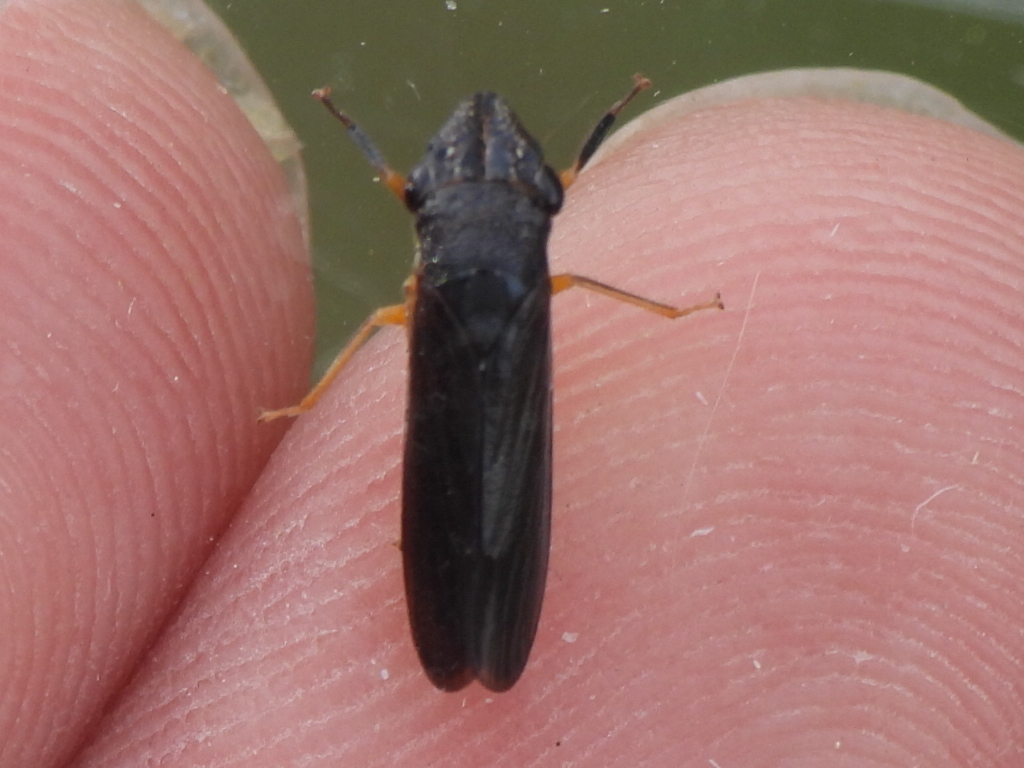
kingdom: Animalia
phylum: Arthropoda
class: Insecta
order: Hemiptera
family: Cicadellidae
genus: Homalodisca
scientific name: Homalodisca insolita
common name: Johnson grass sharpshooter
